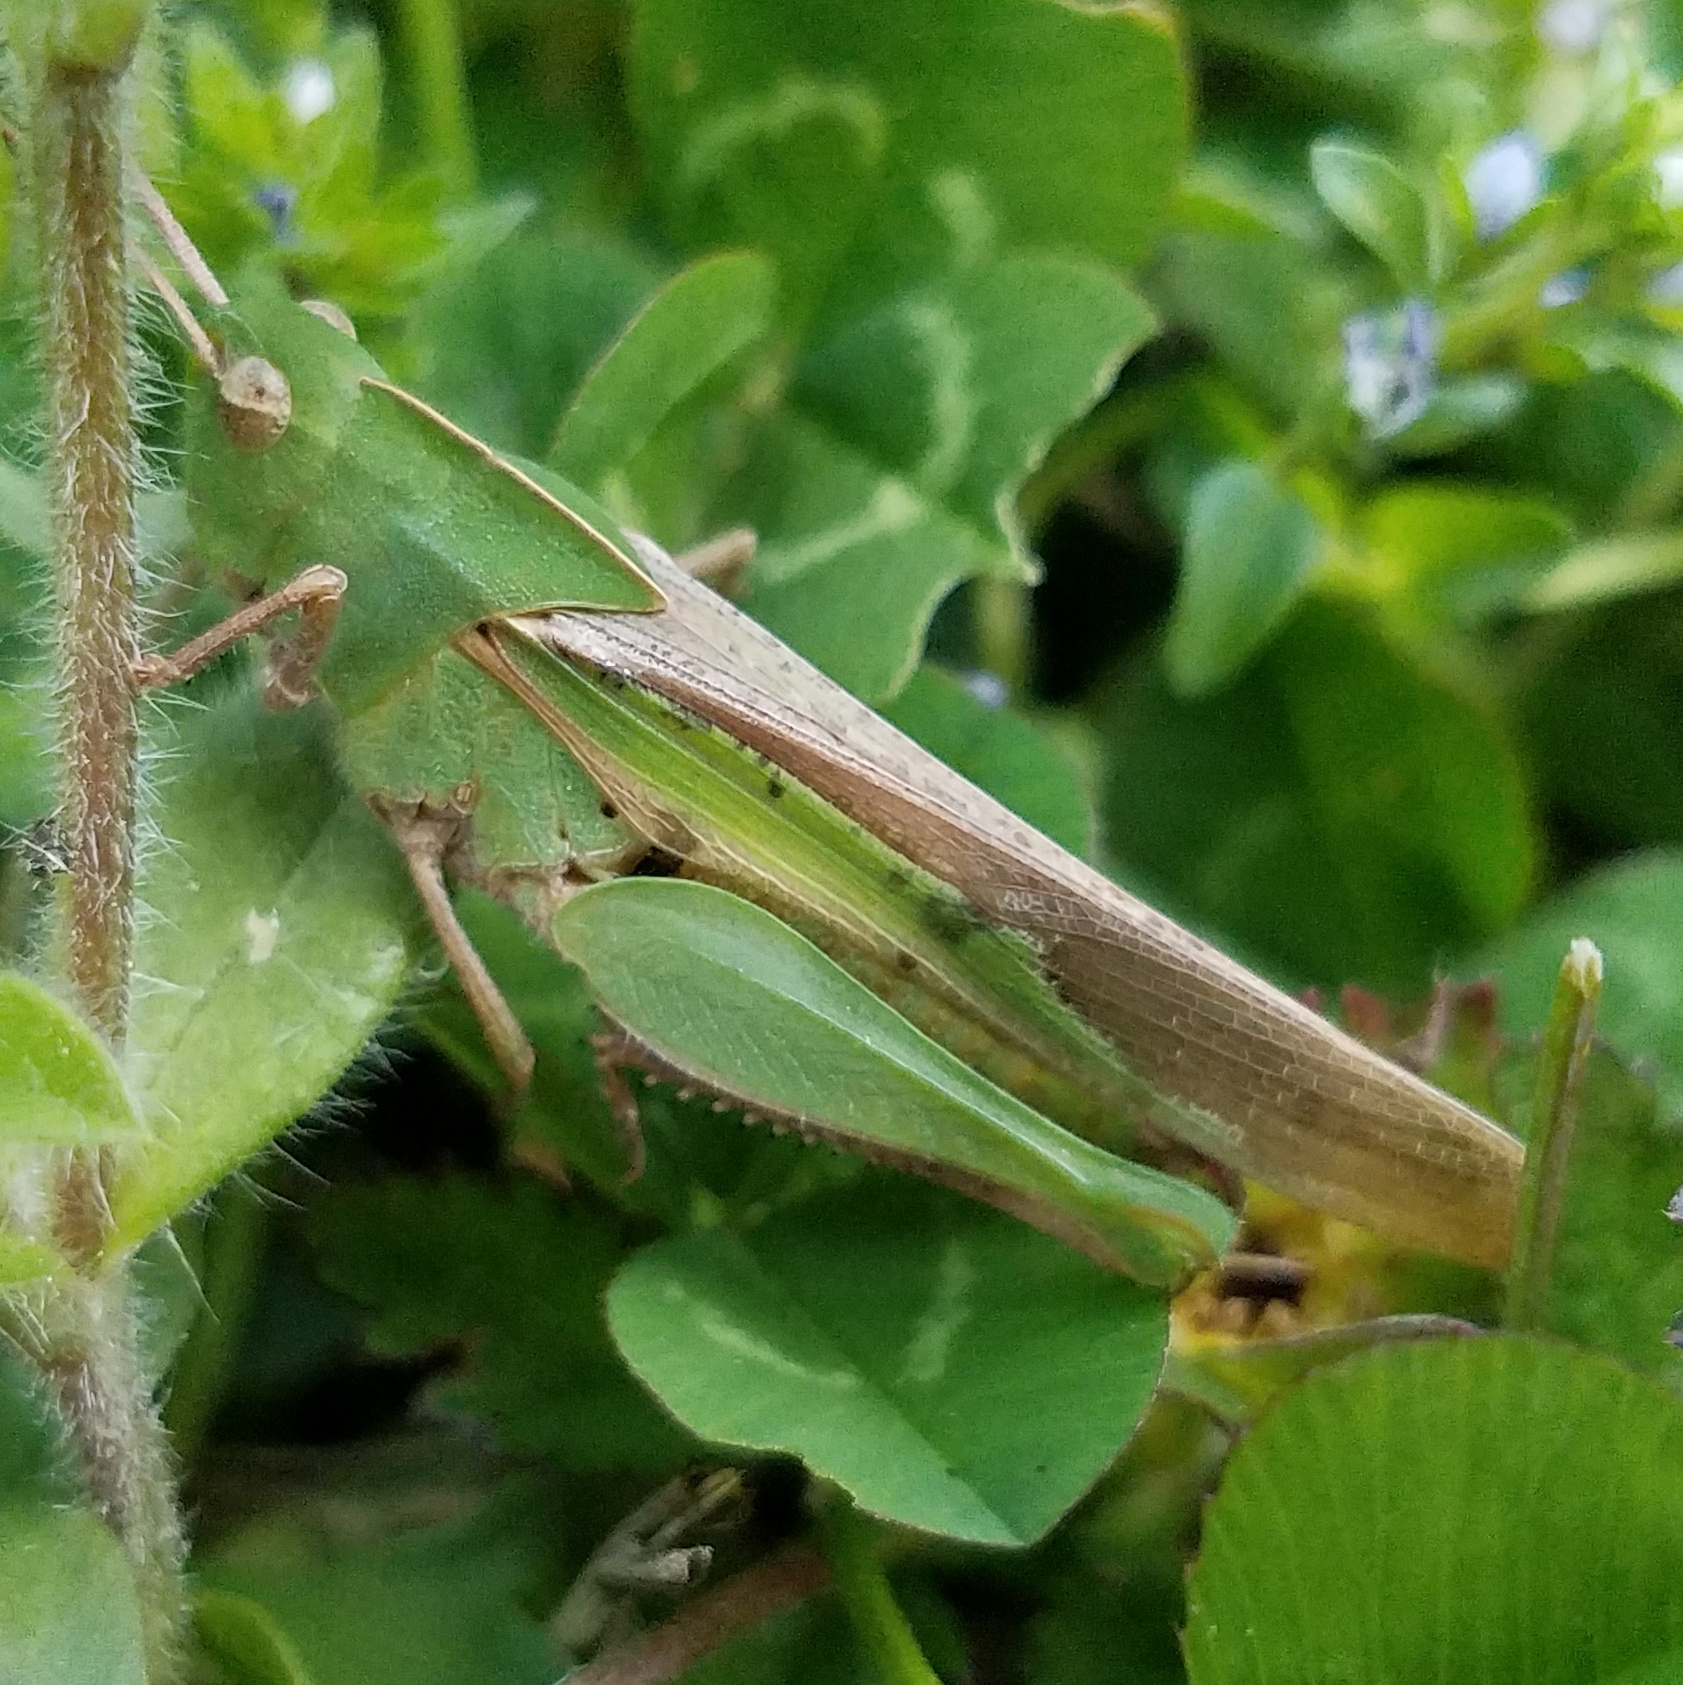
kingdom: Animalia
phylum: Arthropoda
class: Insecta
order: Orthoptera
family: Acrididae
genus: Chortophaga
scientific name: Chortophaga viridifasciata
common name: Green-striped grasshopper
